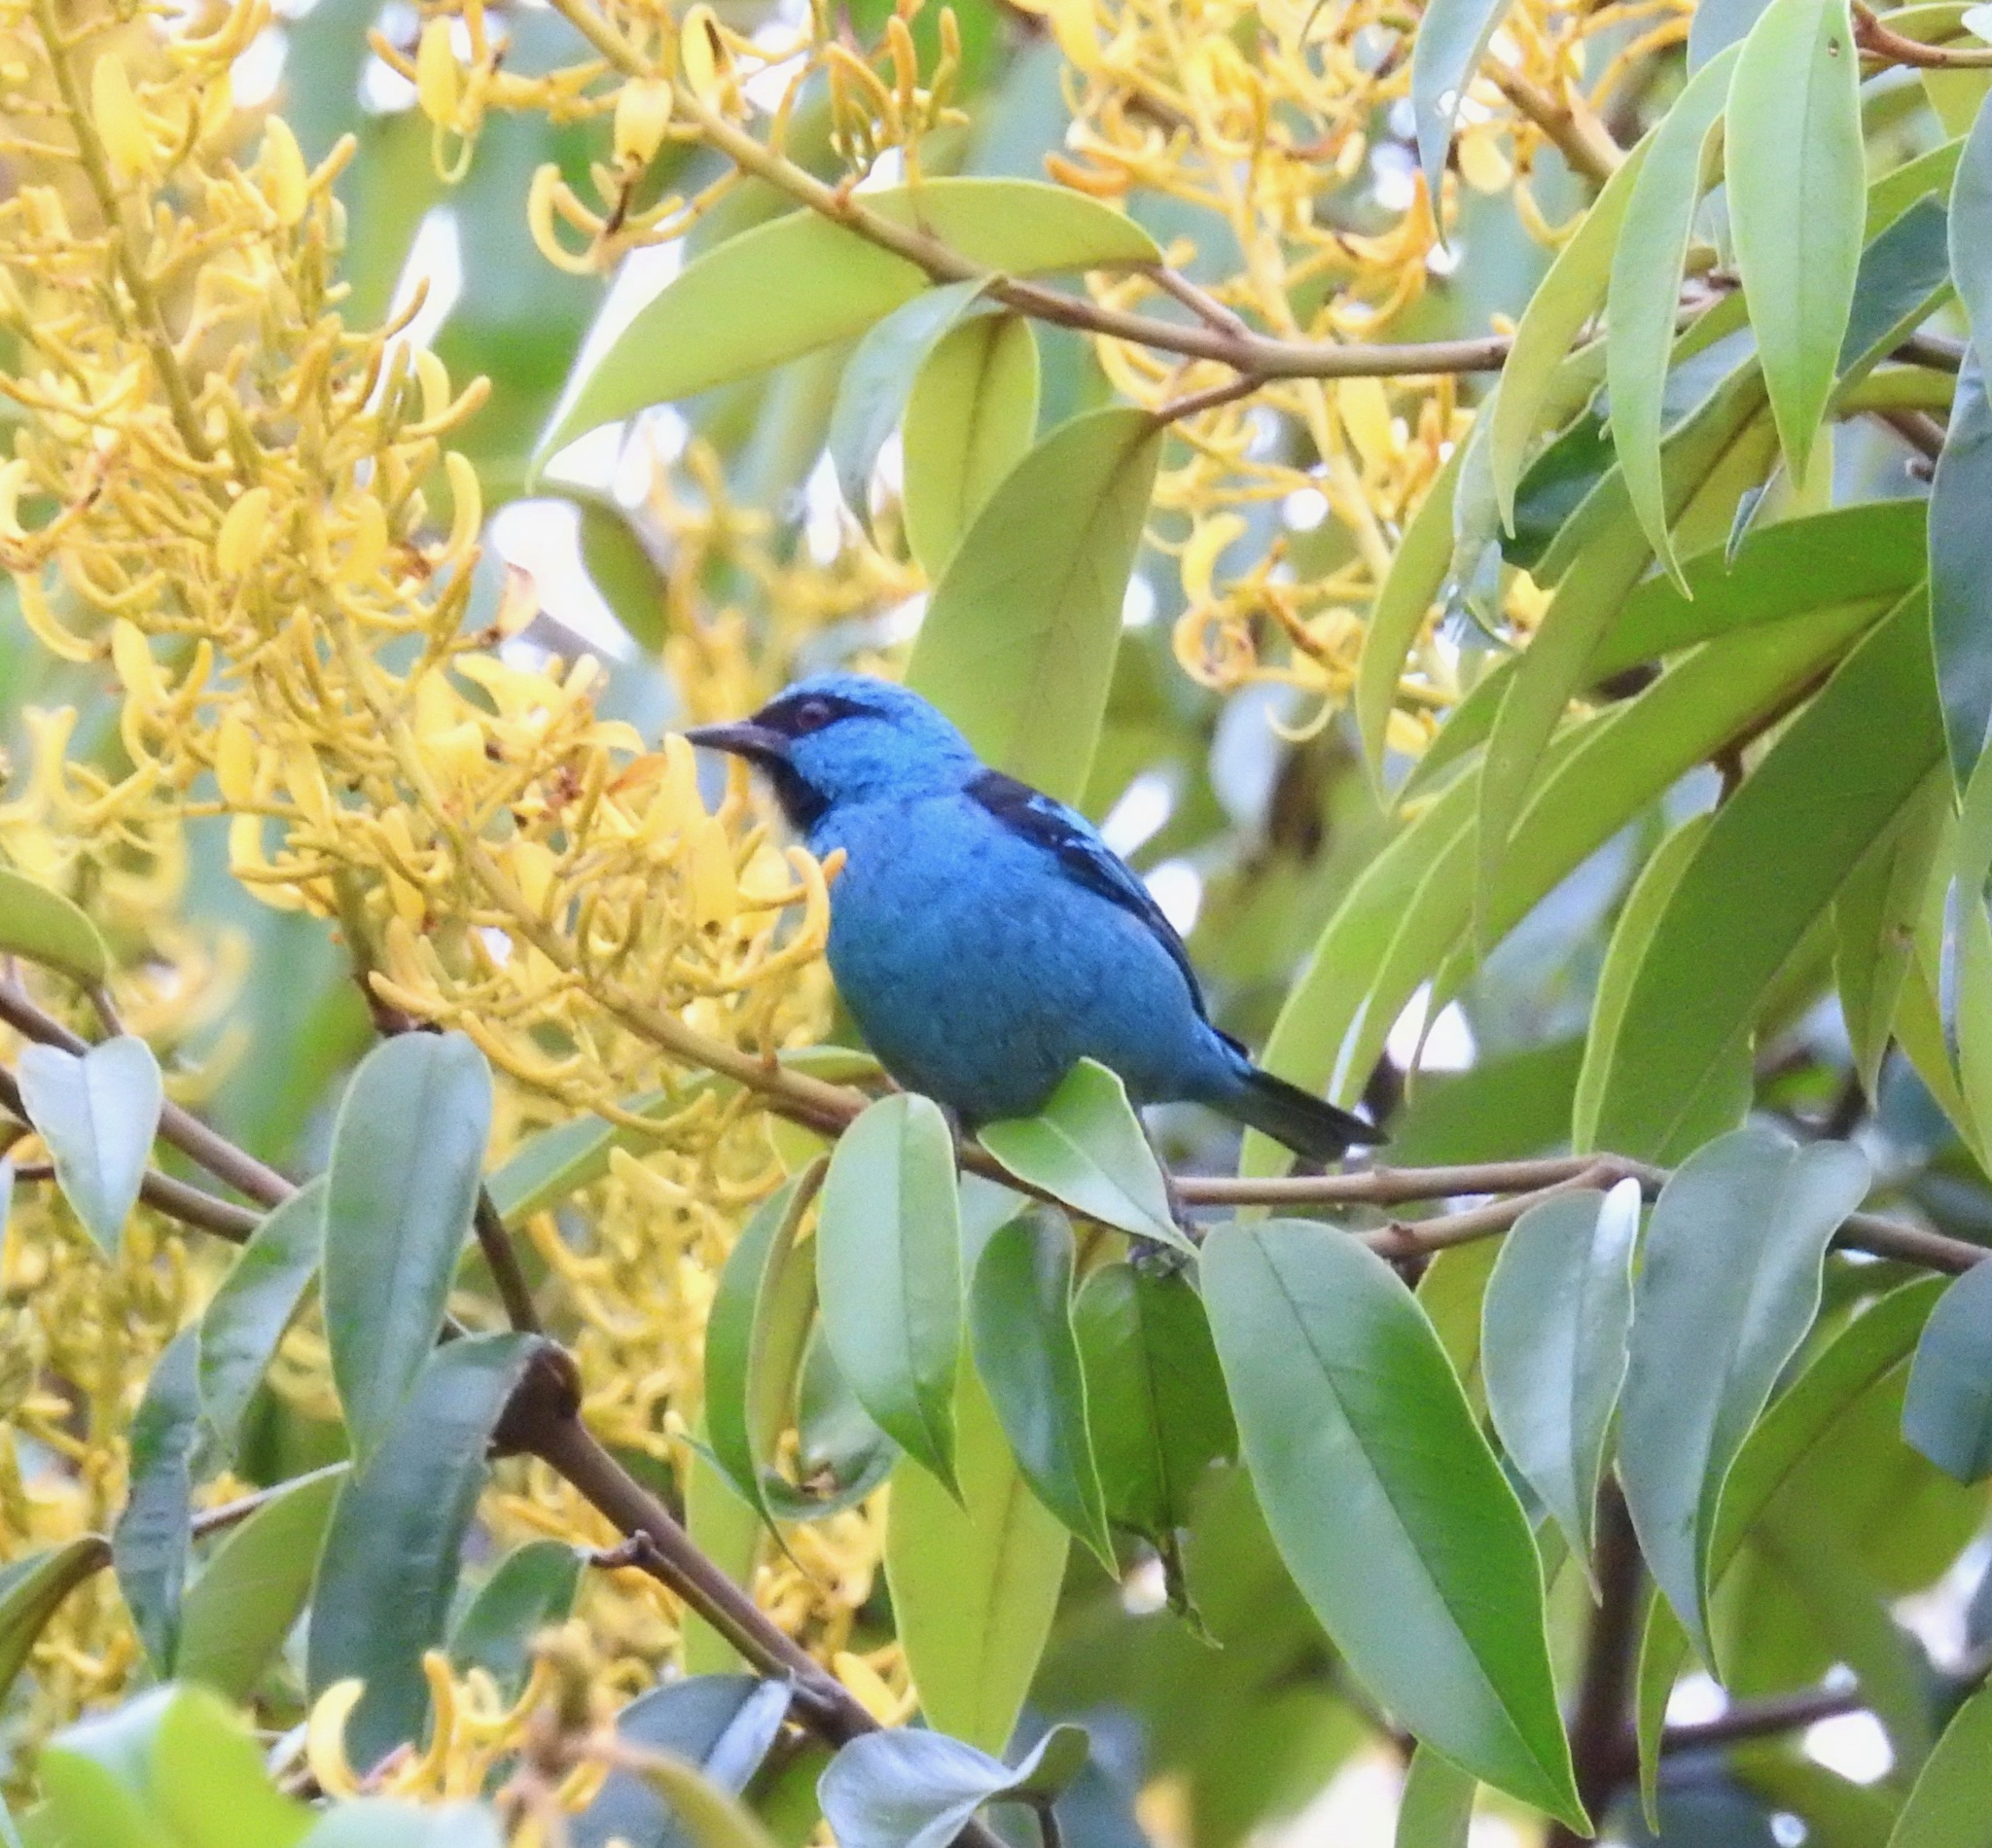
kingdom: Animalia
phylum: Chordata
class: Aves
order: Passeriformes
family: Thraupidae
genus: Dacnis
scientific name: Dacnis cayana
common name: Blue dacnis
